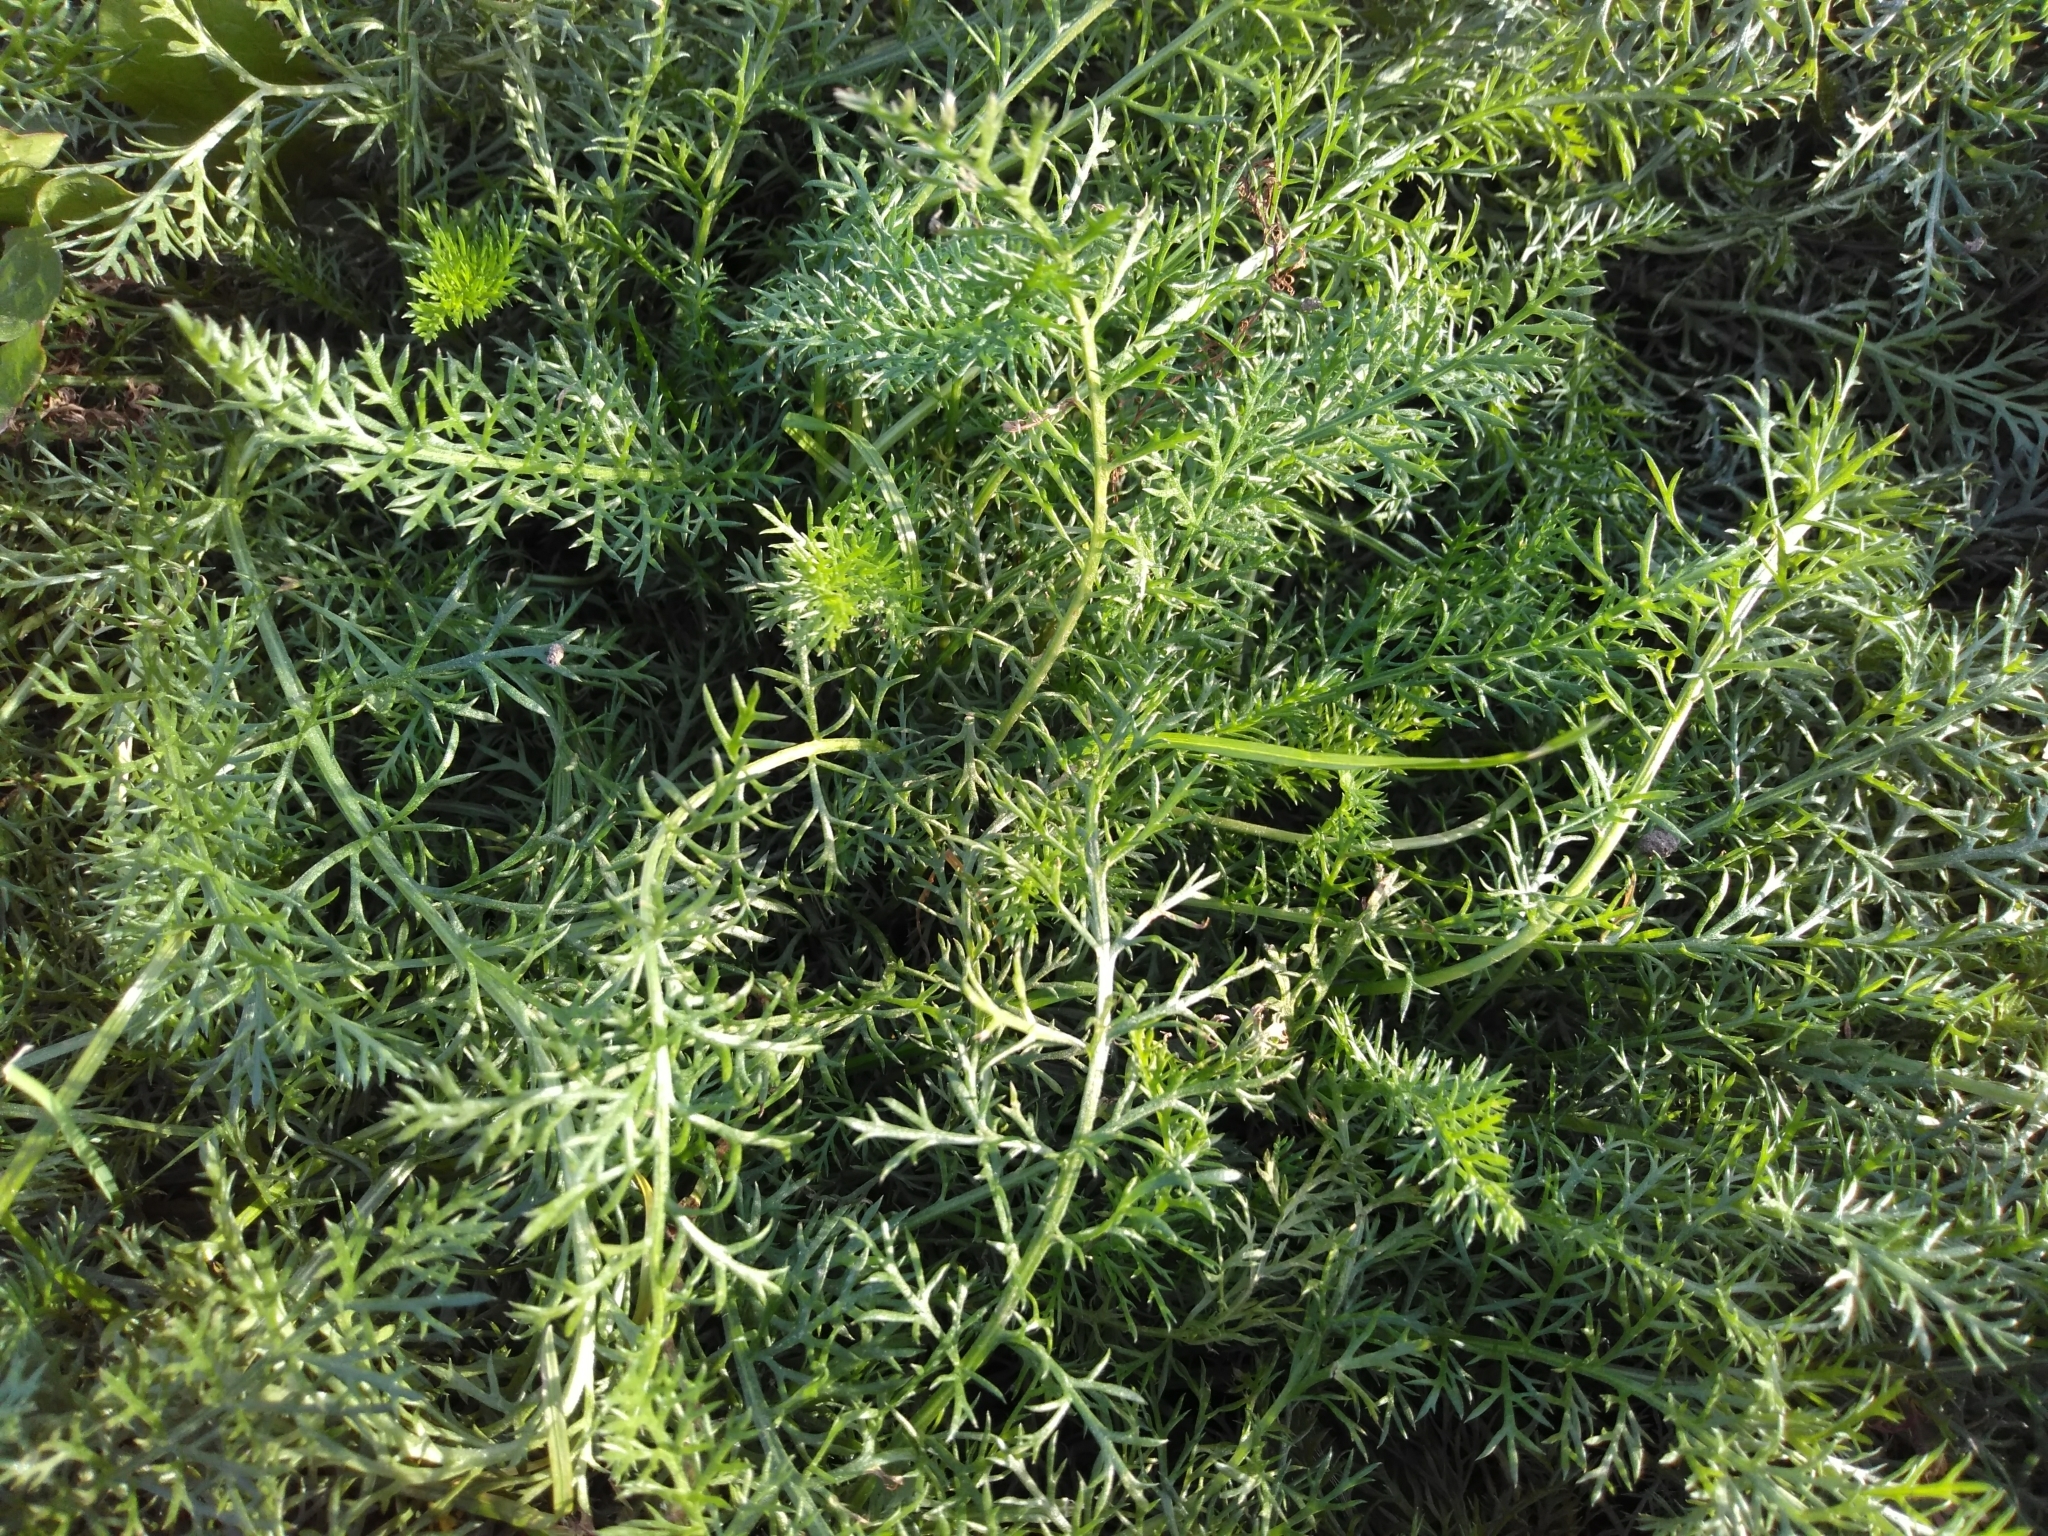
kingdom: Plantae
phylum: Tracheophyta
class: Magnoliopsida
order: Asterales
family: Asteraceae
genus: Achillea
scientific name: Achillea millefolium
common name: Yarrow
